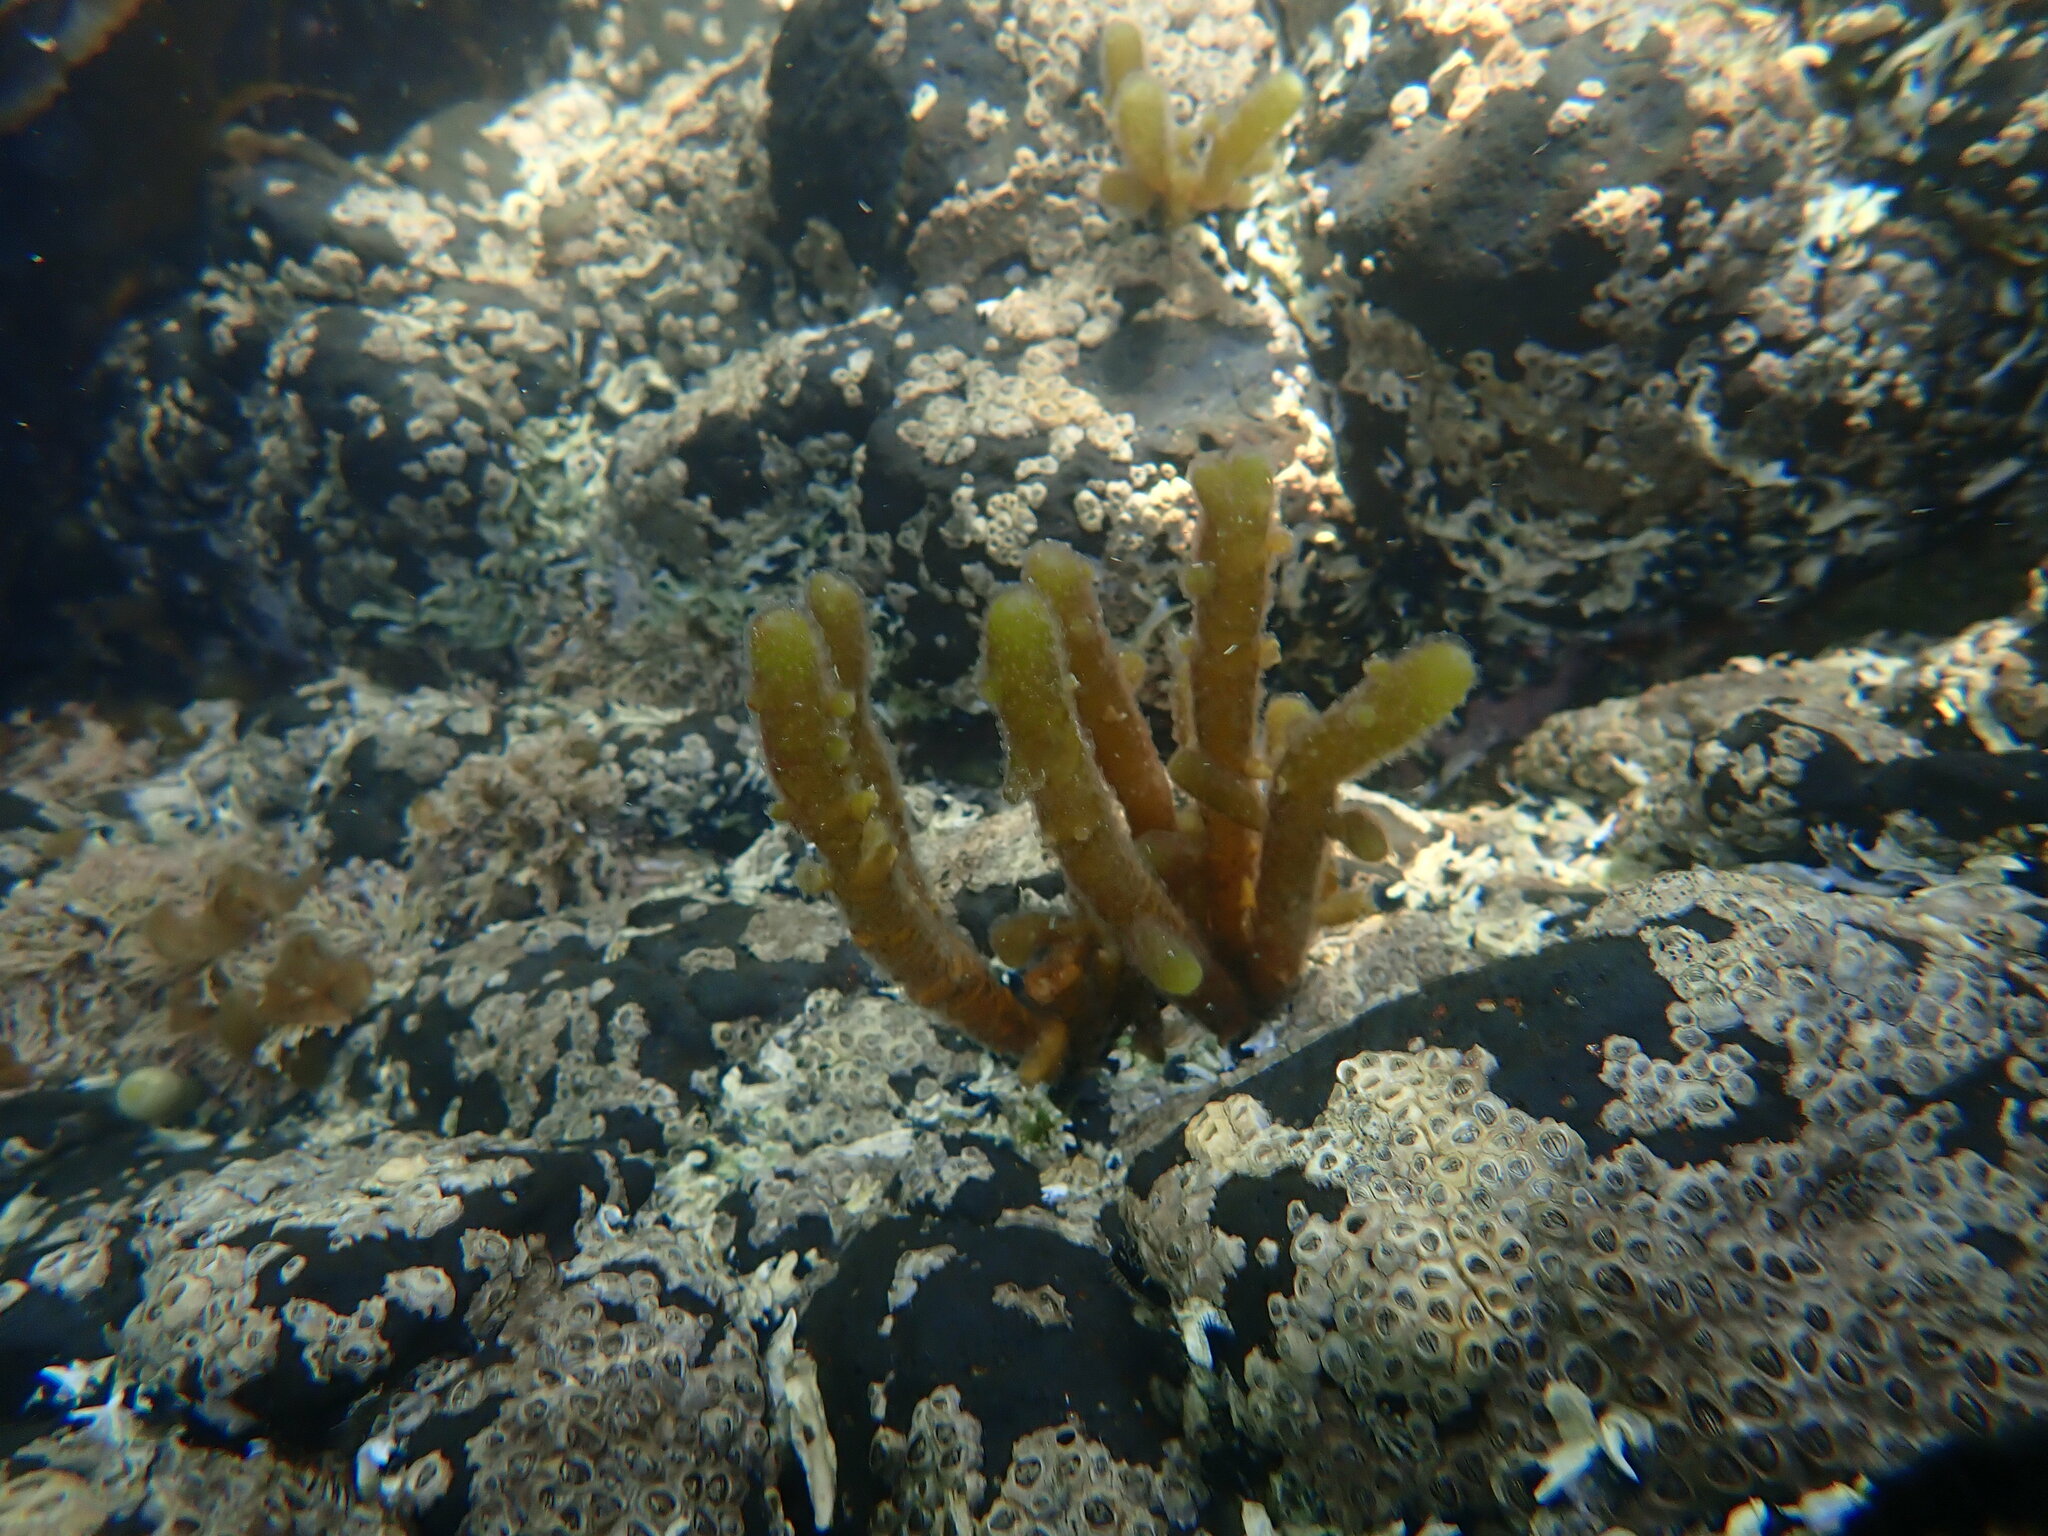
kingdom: Chromista
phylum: Ochrophyta
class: Phaeophyceae
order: Scytothamnales
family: Splachnidiaceae
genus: Splachnidium
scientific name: Splachnidium rugosum
